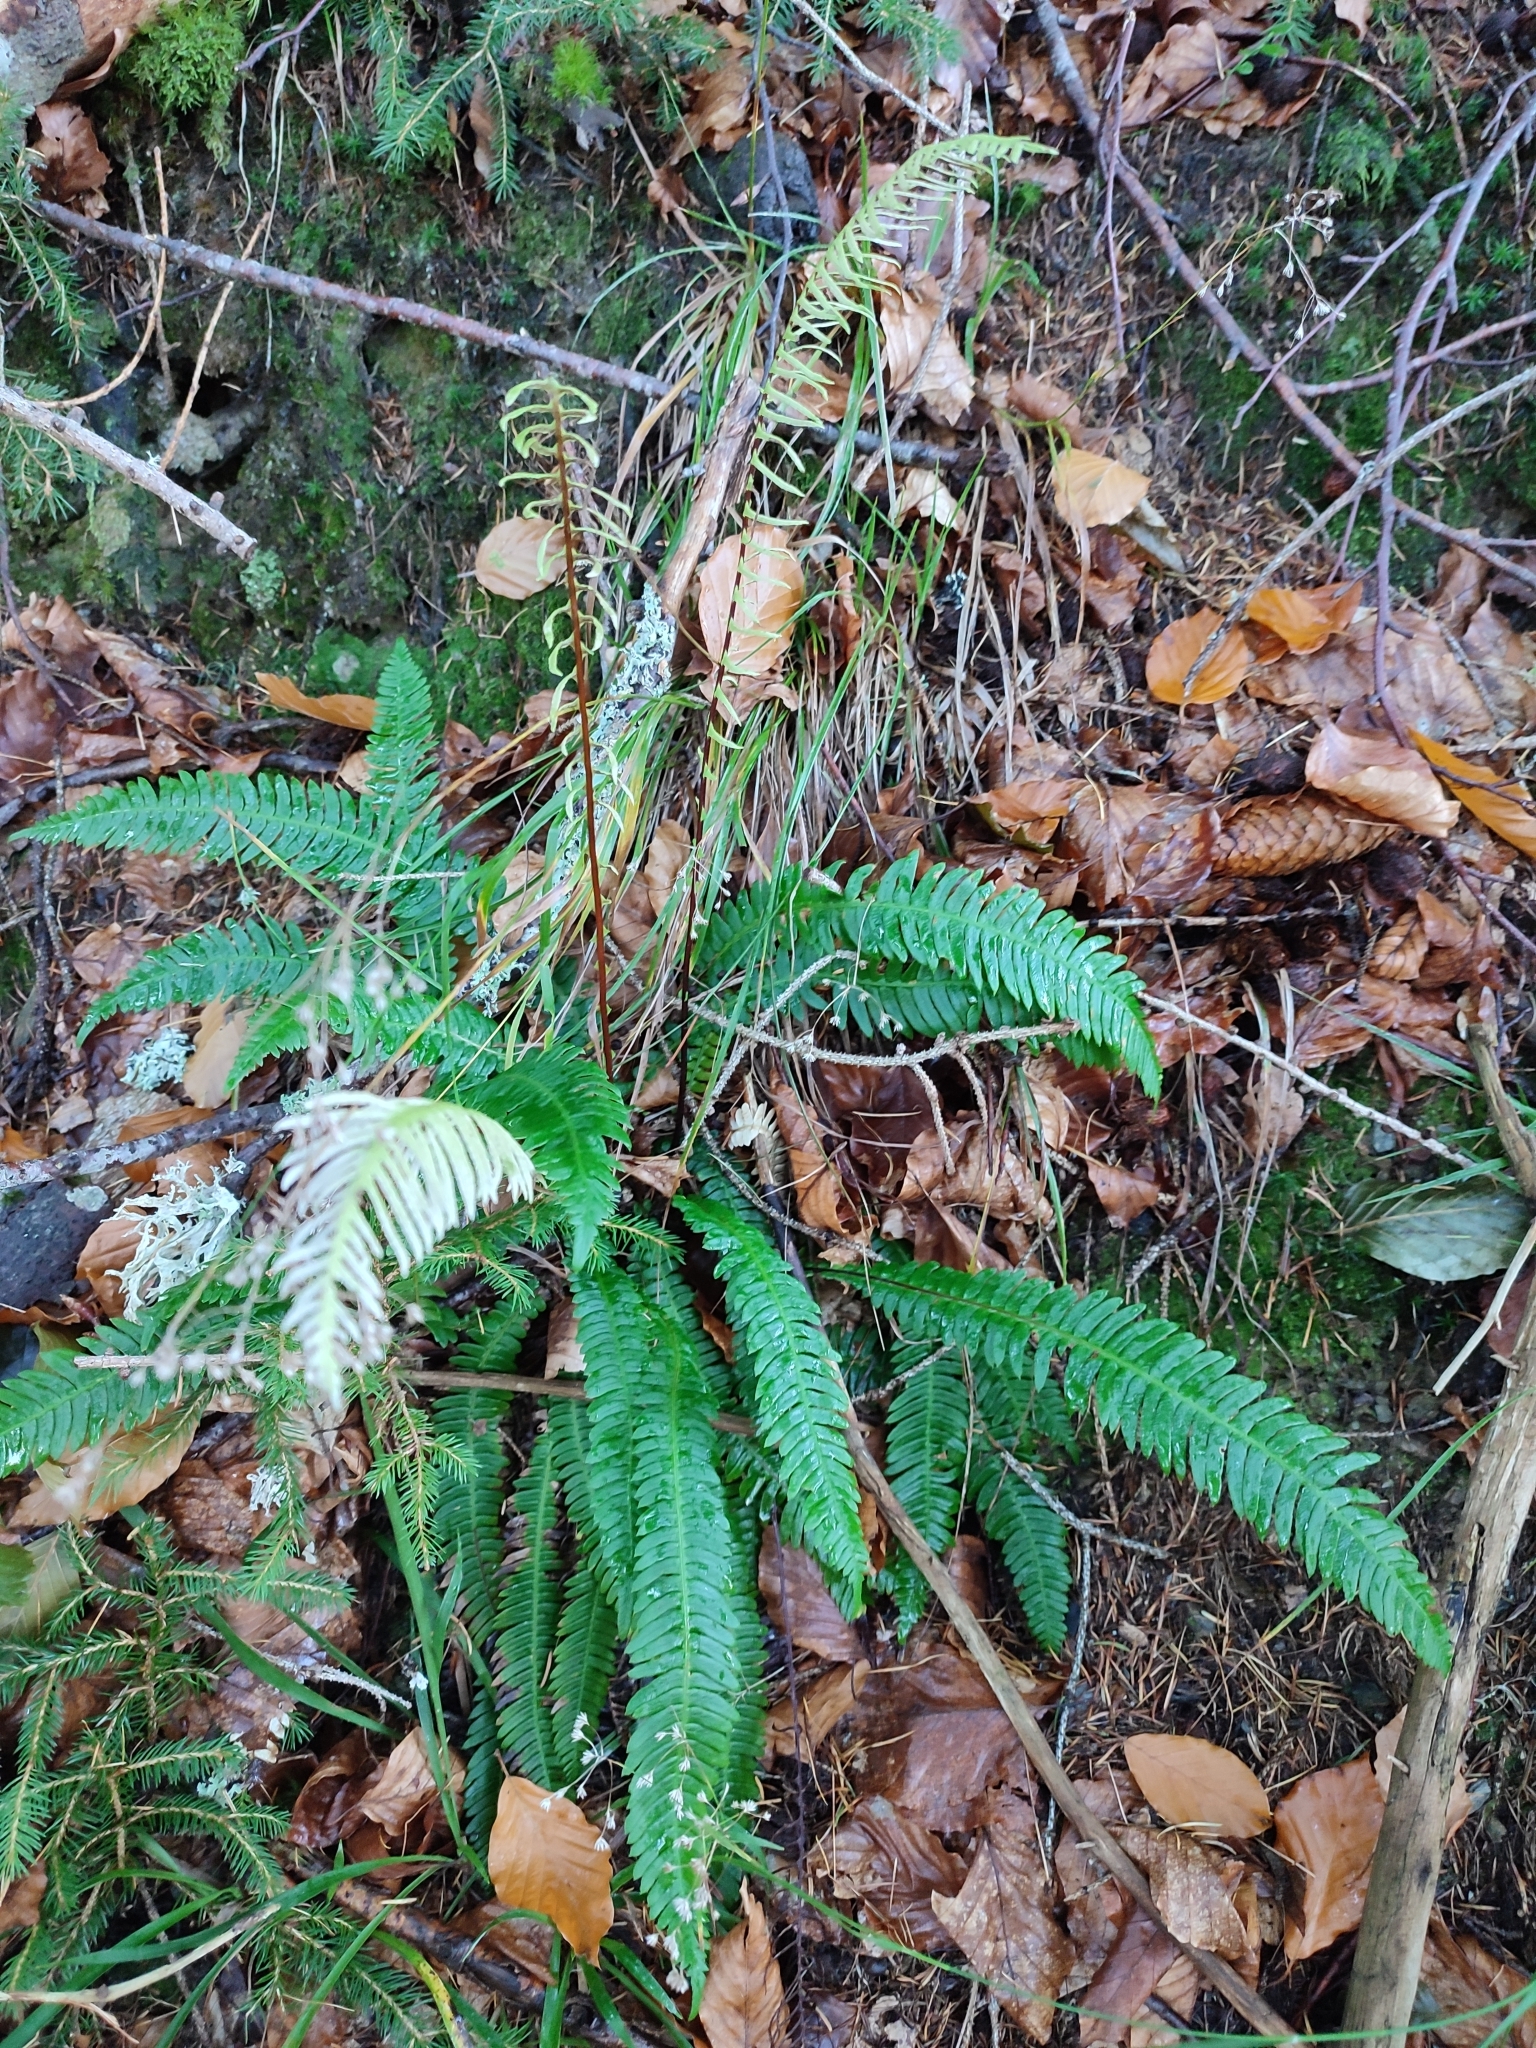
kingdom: Plantae
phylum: Tracheophyta
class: Polypodiopsida
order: Polypodiales
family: Blechnaceae
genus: Struthiopteris
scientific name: Struthiopteris spicant
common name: Deer fern
